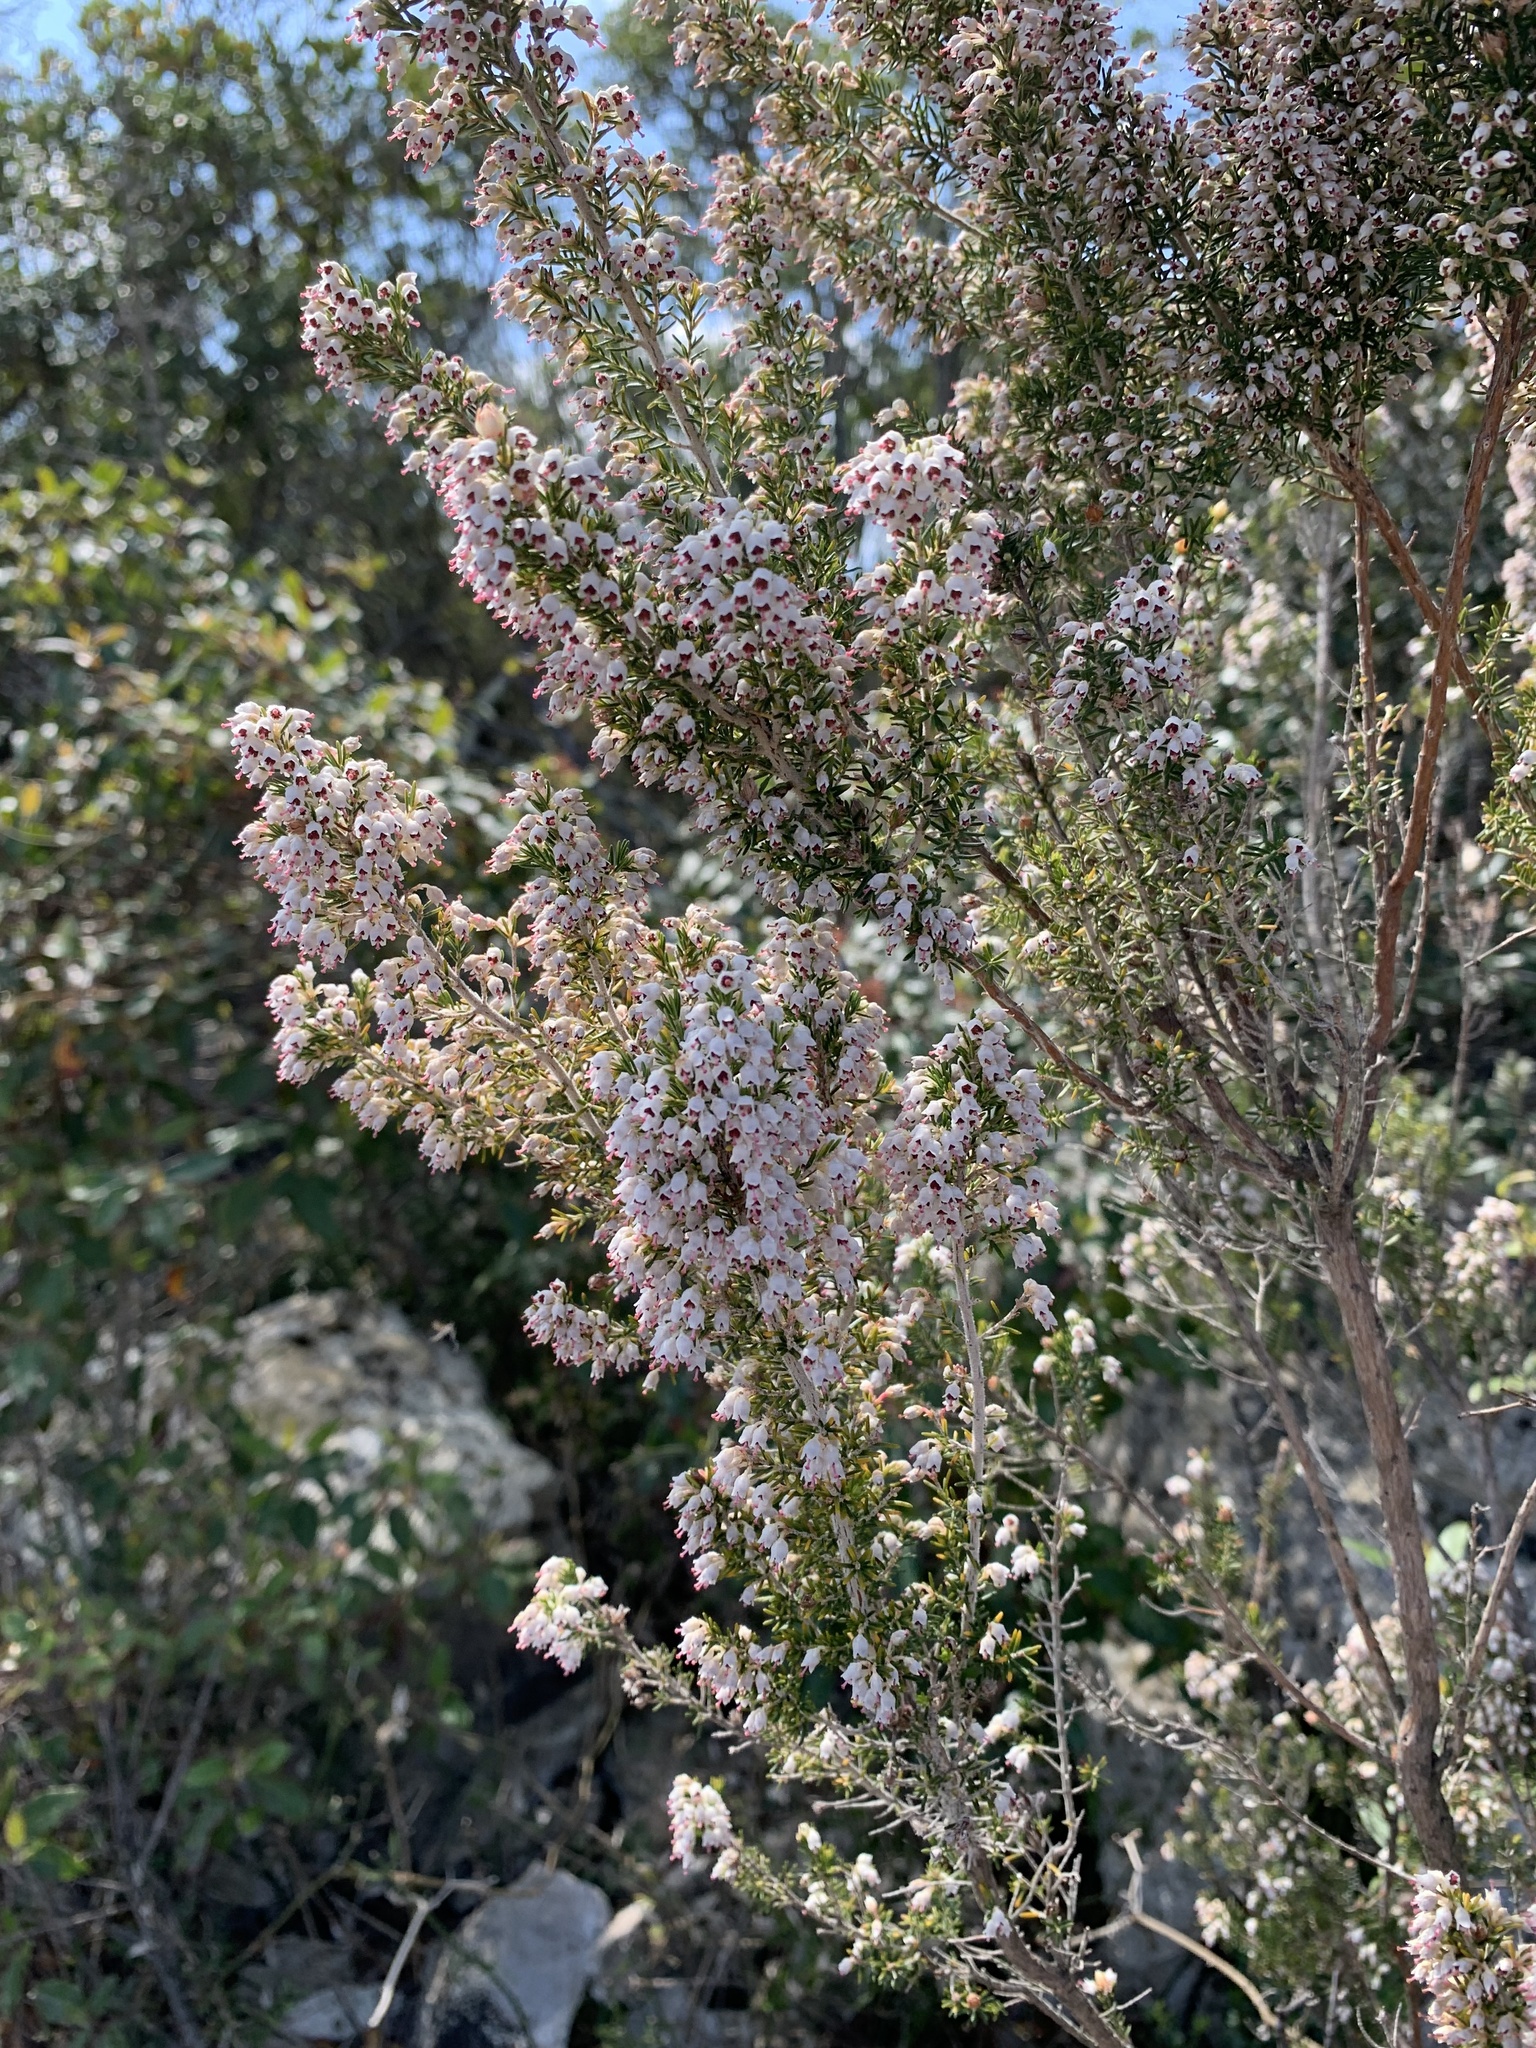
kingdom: Plantae
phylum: Tracheophyta
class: Magnoliopsida
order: Ericales
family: Ericaceae
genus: Erica
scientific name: Erica arborea
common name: Tree heath
